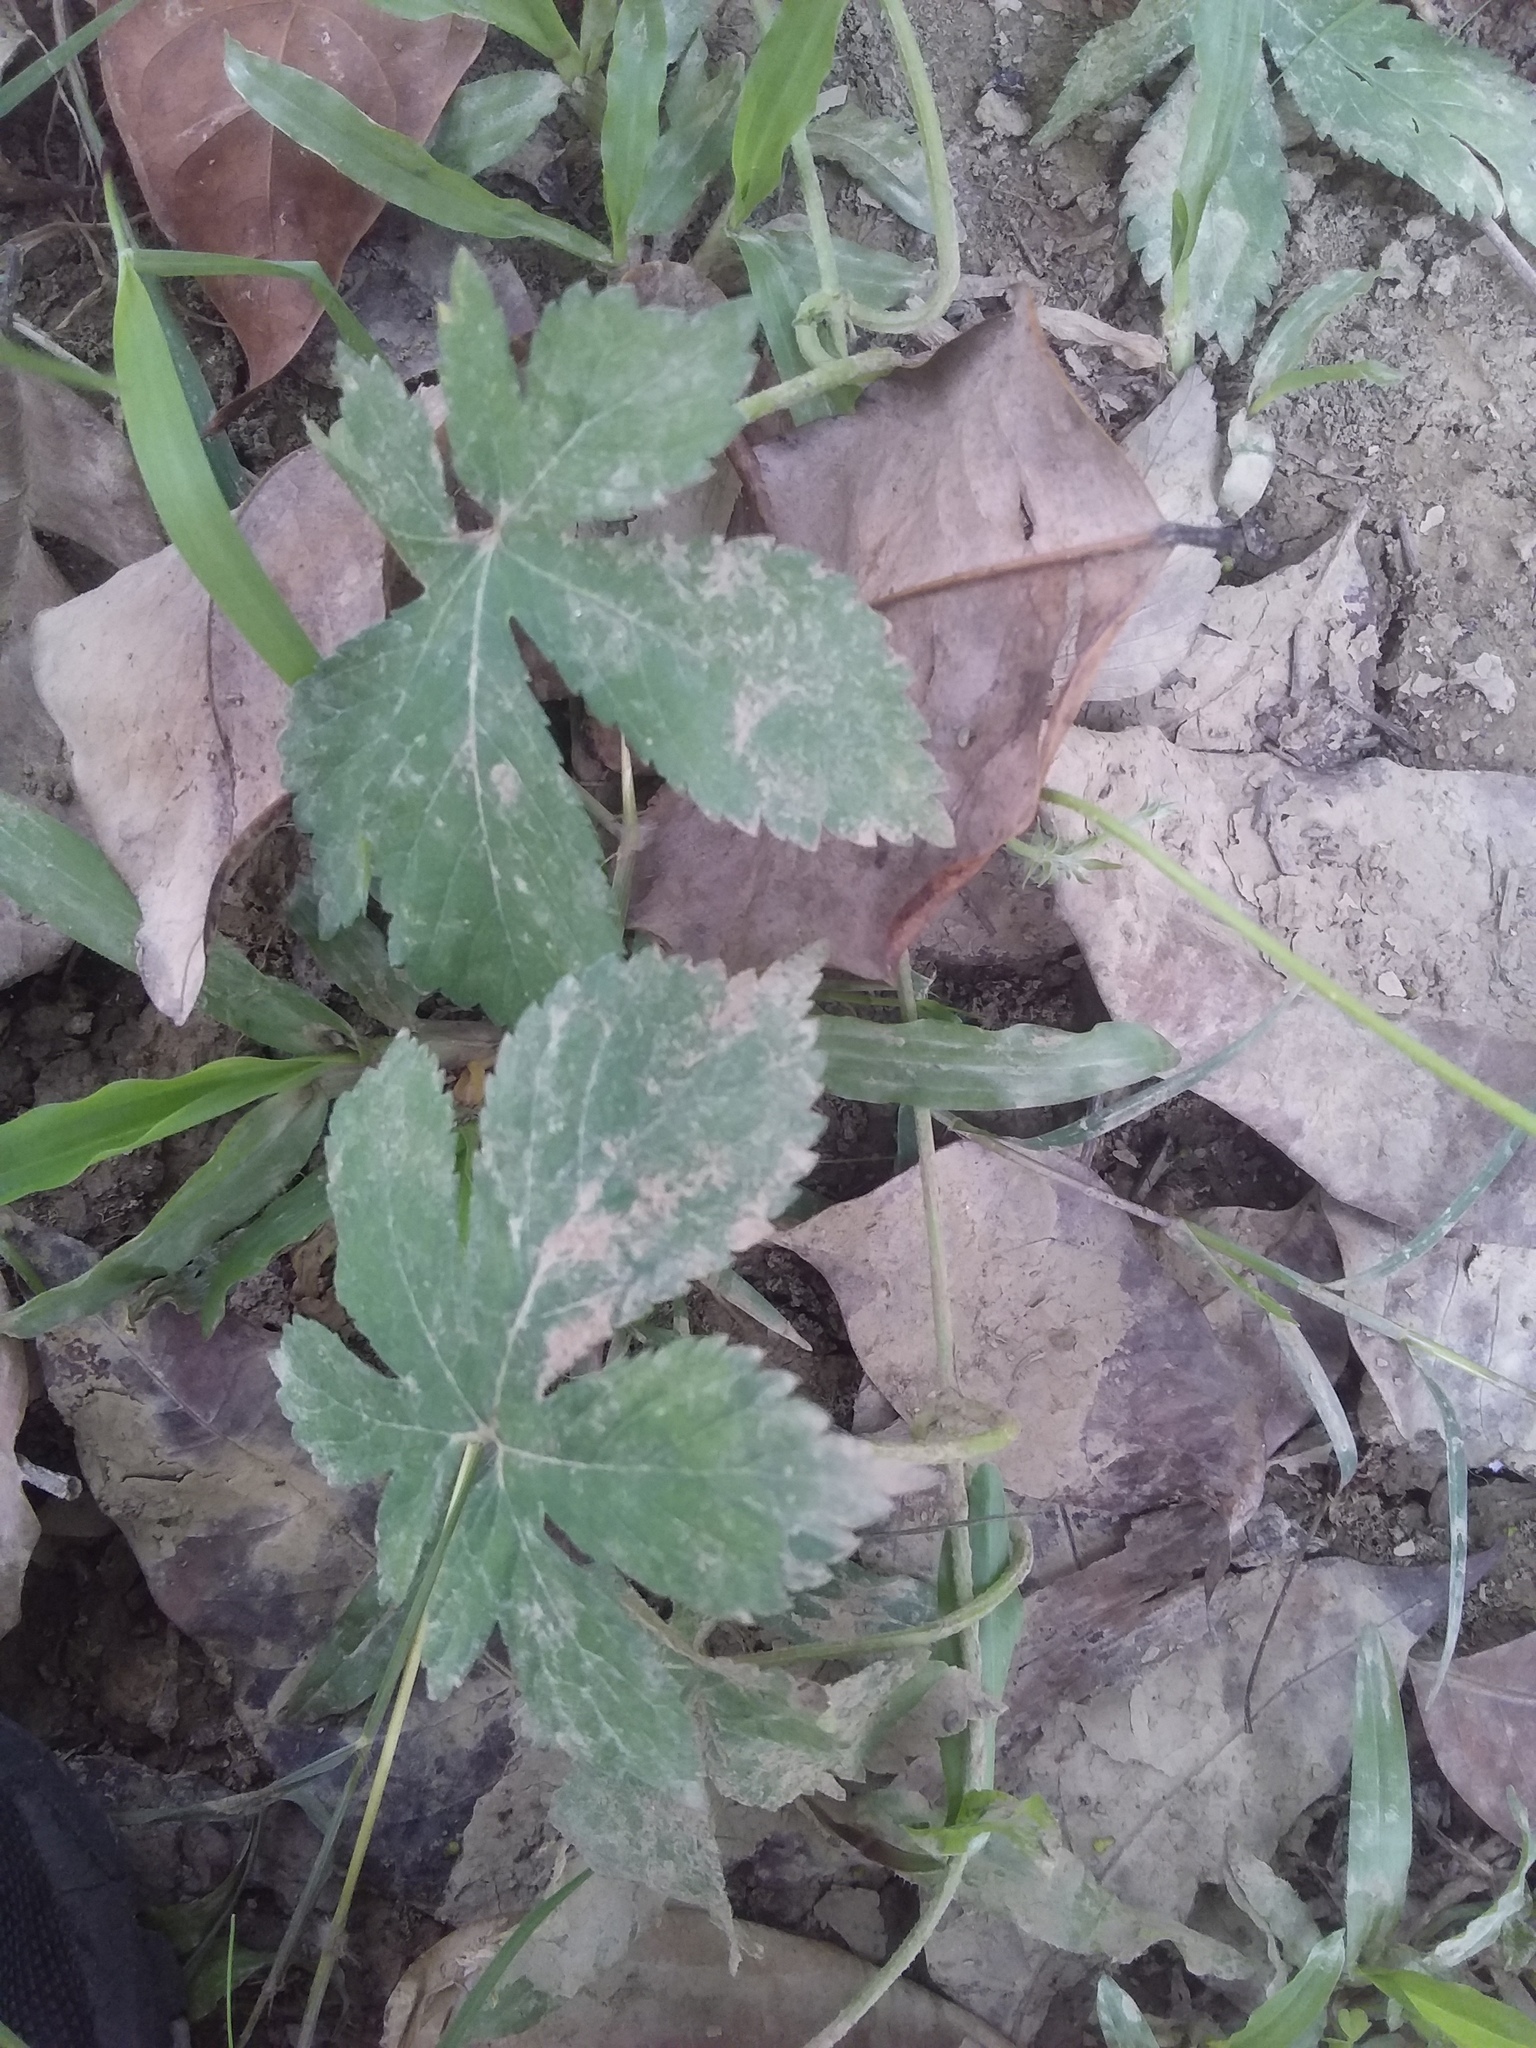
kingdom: Plantae
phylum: Tracheophyta
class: Magnoliopsida
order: Rosales
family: Cannabaceae
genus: Humulus
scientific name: Humulus scandens
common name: Japanese hop
